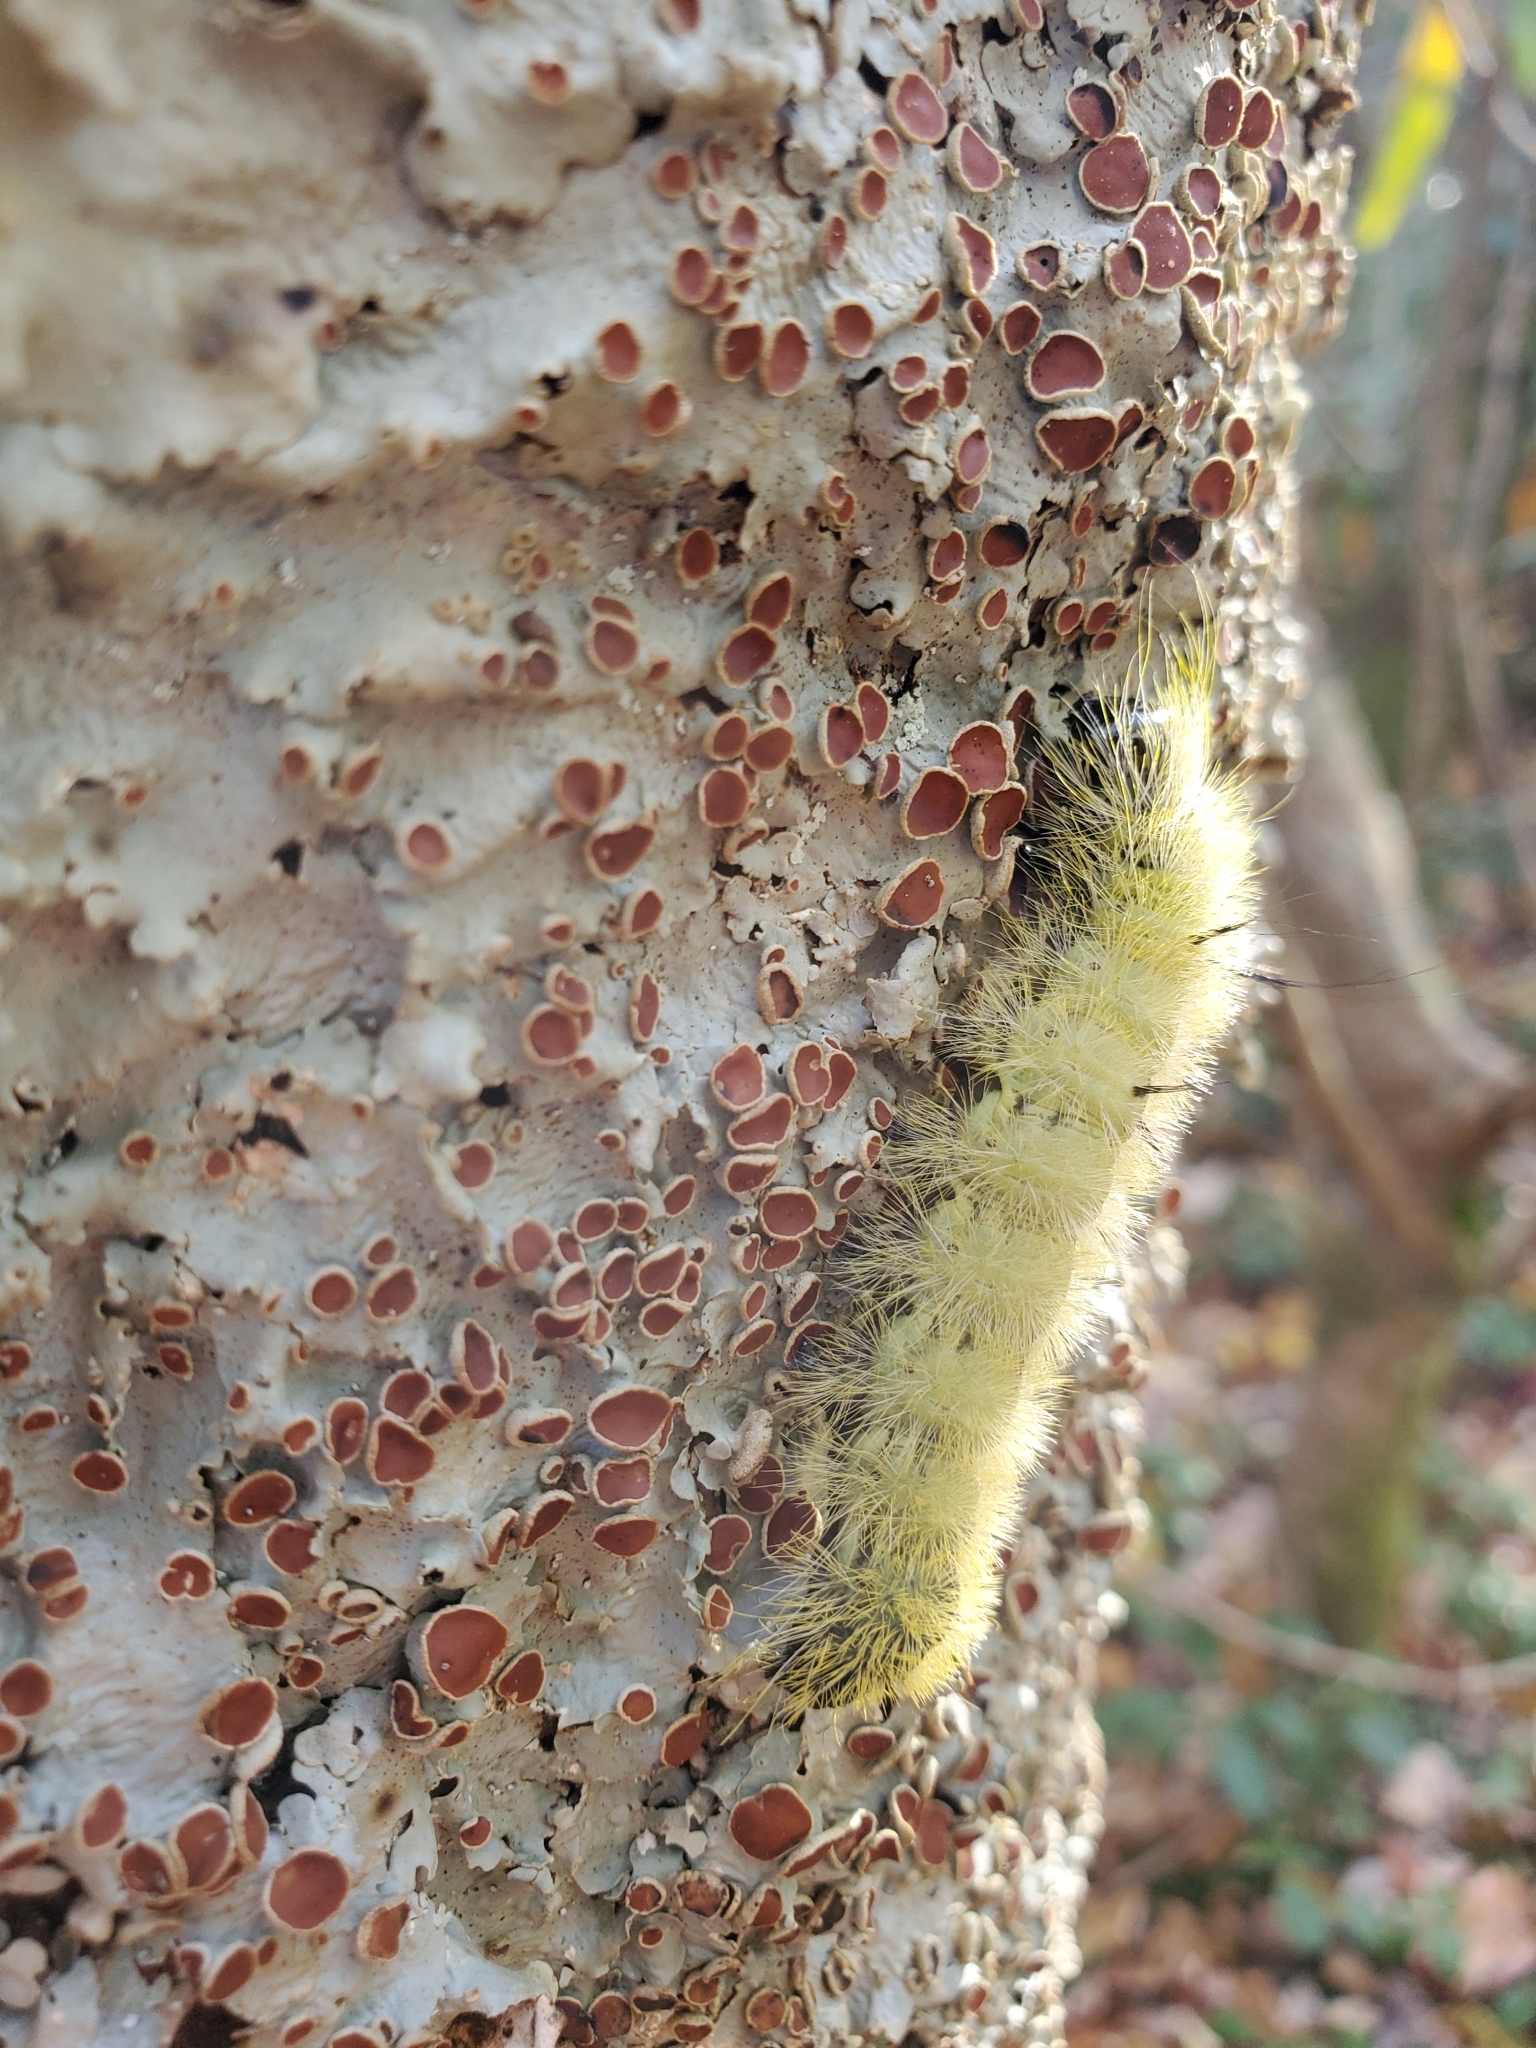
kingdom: Animalia
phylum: Arthropoda
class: Insecta
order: Lepidoptera
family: Noctuidae
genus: Acronicta
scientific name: Acronicta americana
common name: American dagger
